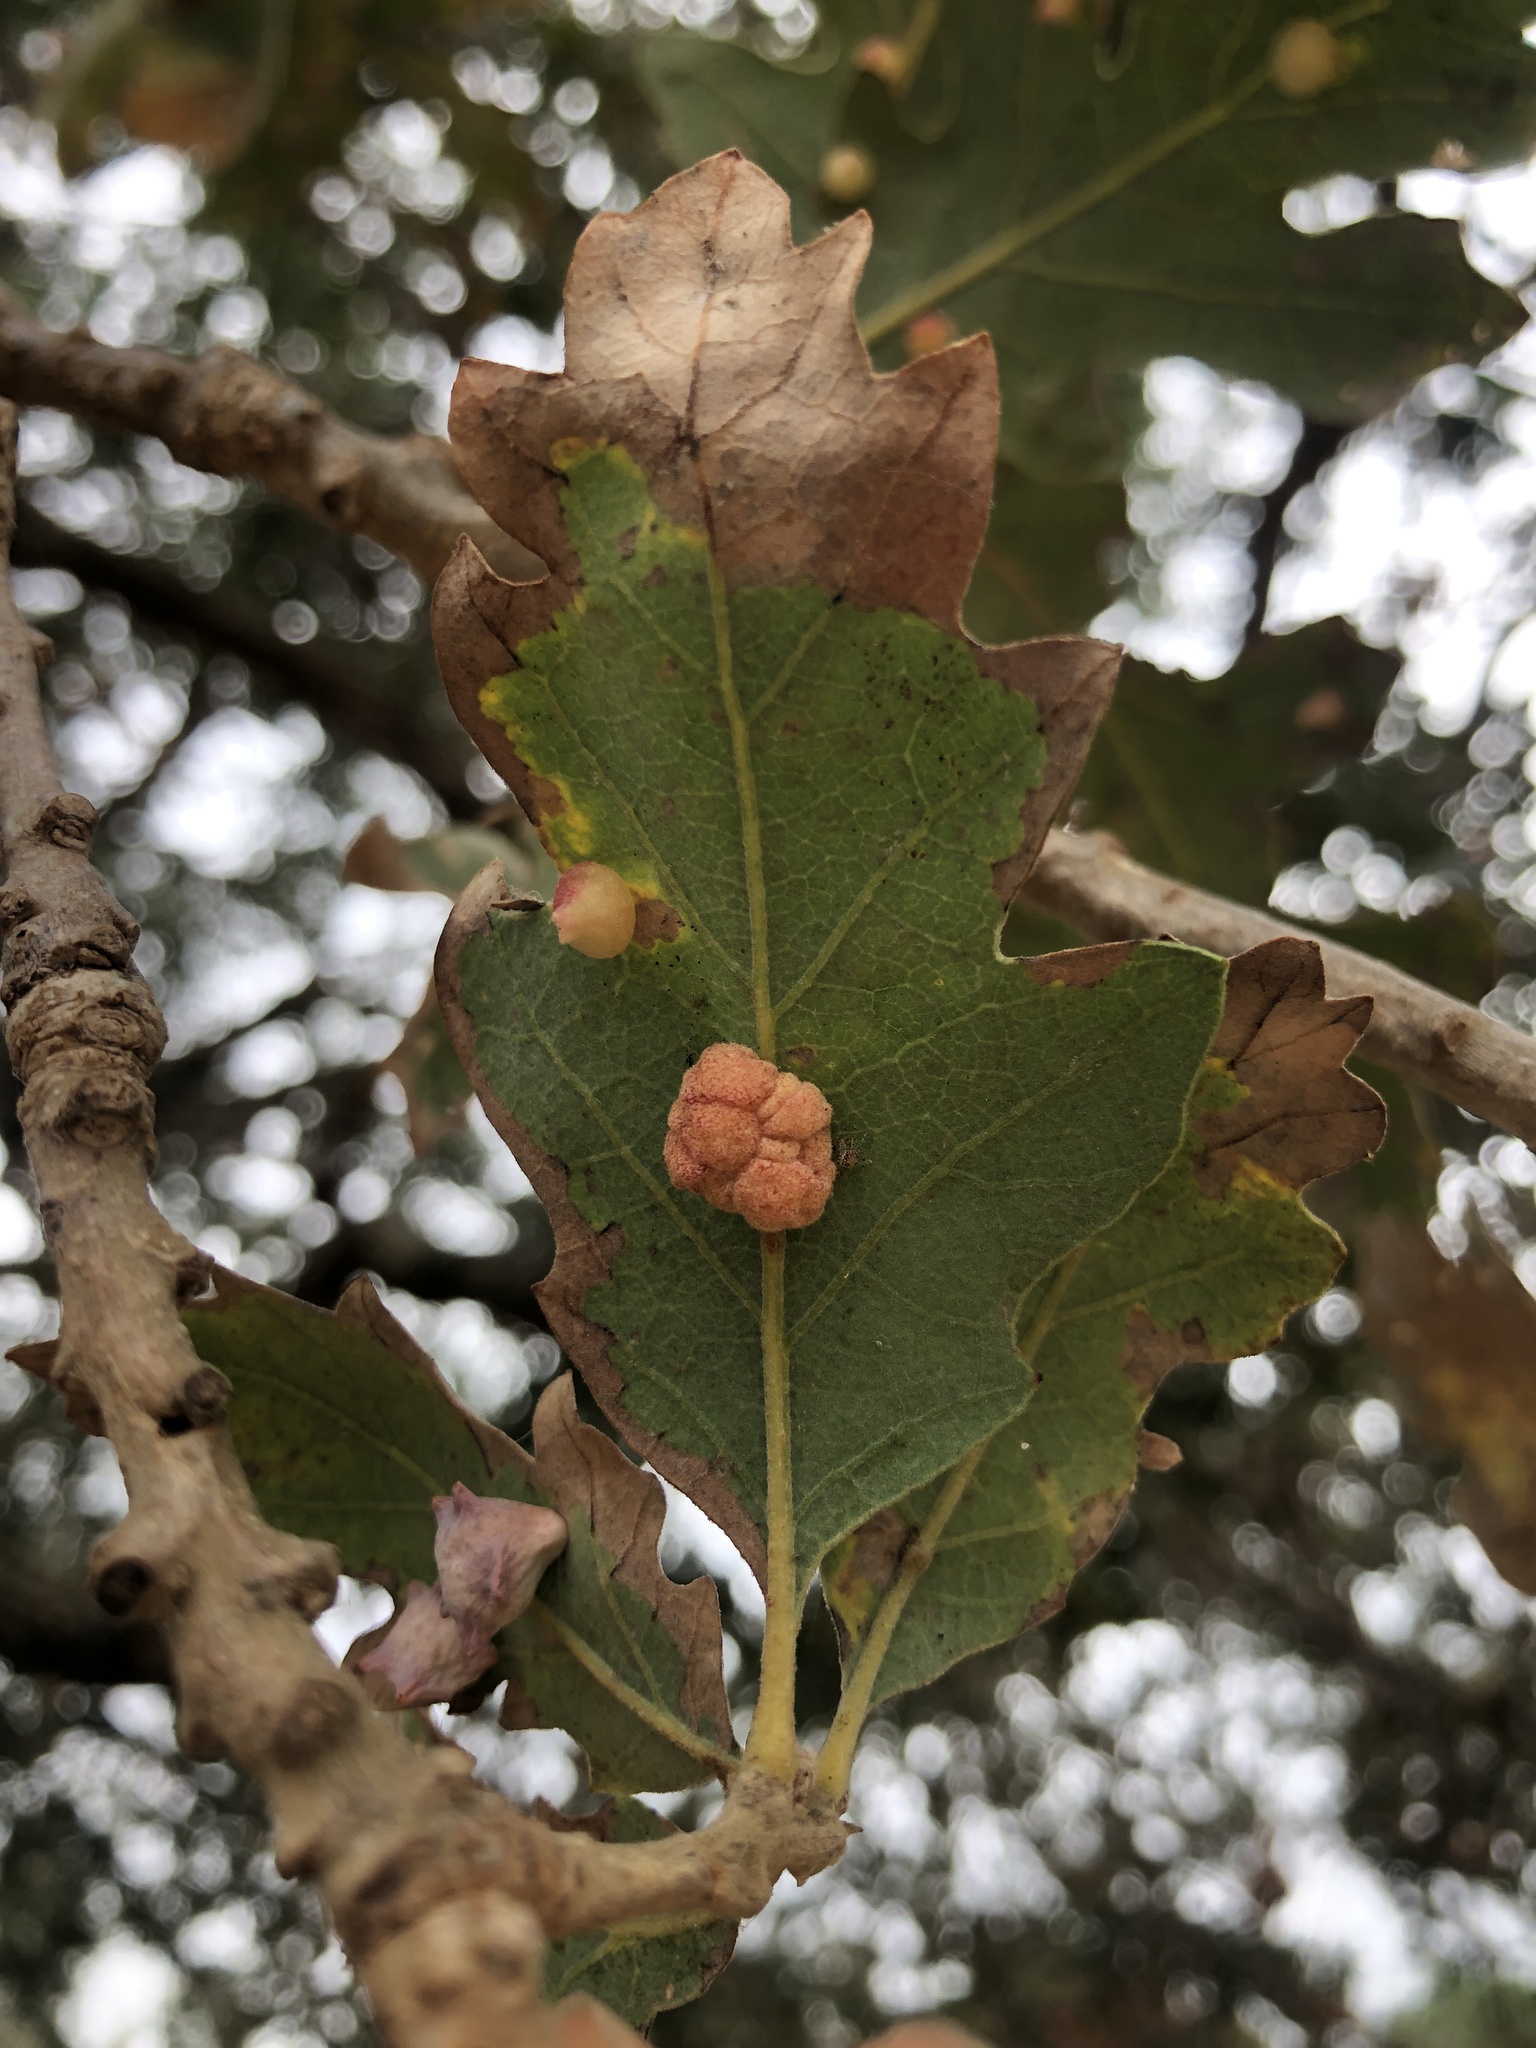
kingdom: Animalia
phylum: Arthropoda
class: Insecta
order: Hymenoptera
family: Cynipidae
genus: Andricus
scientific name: Andricus
